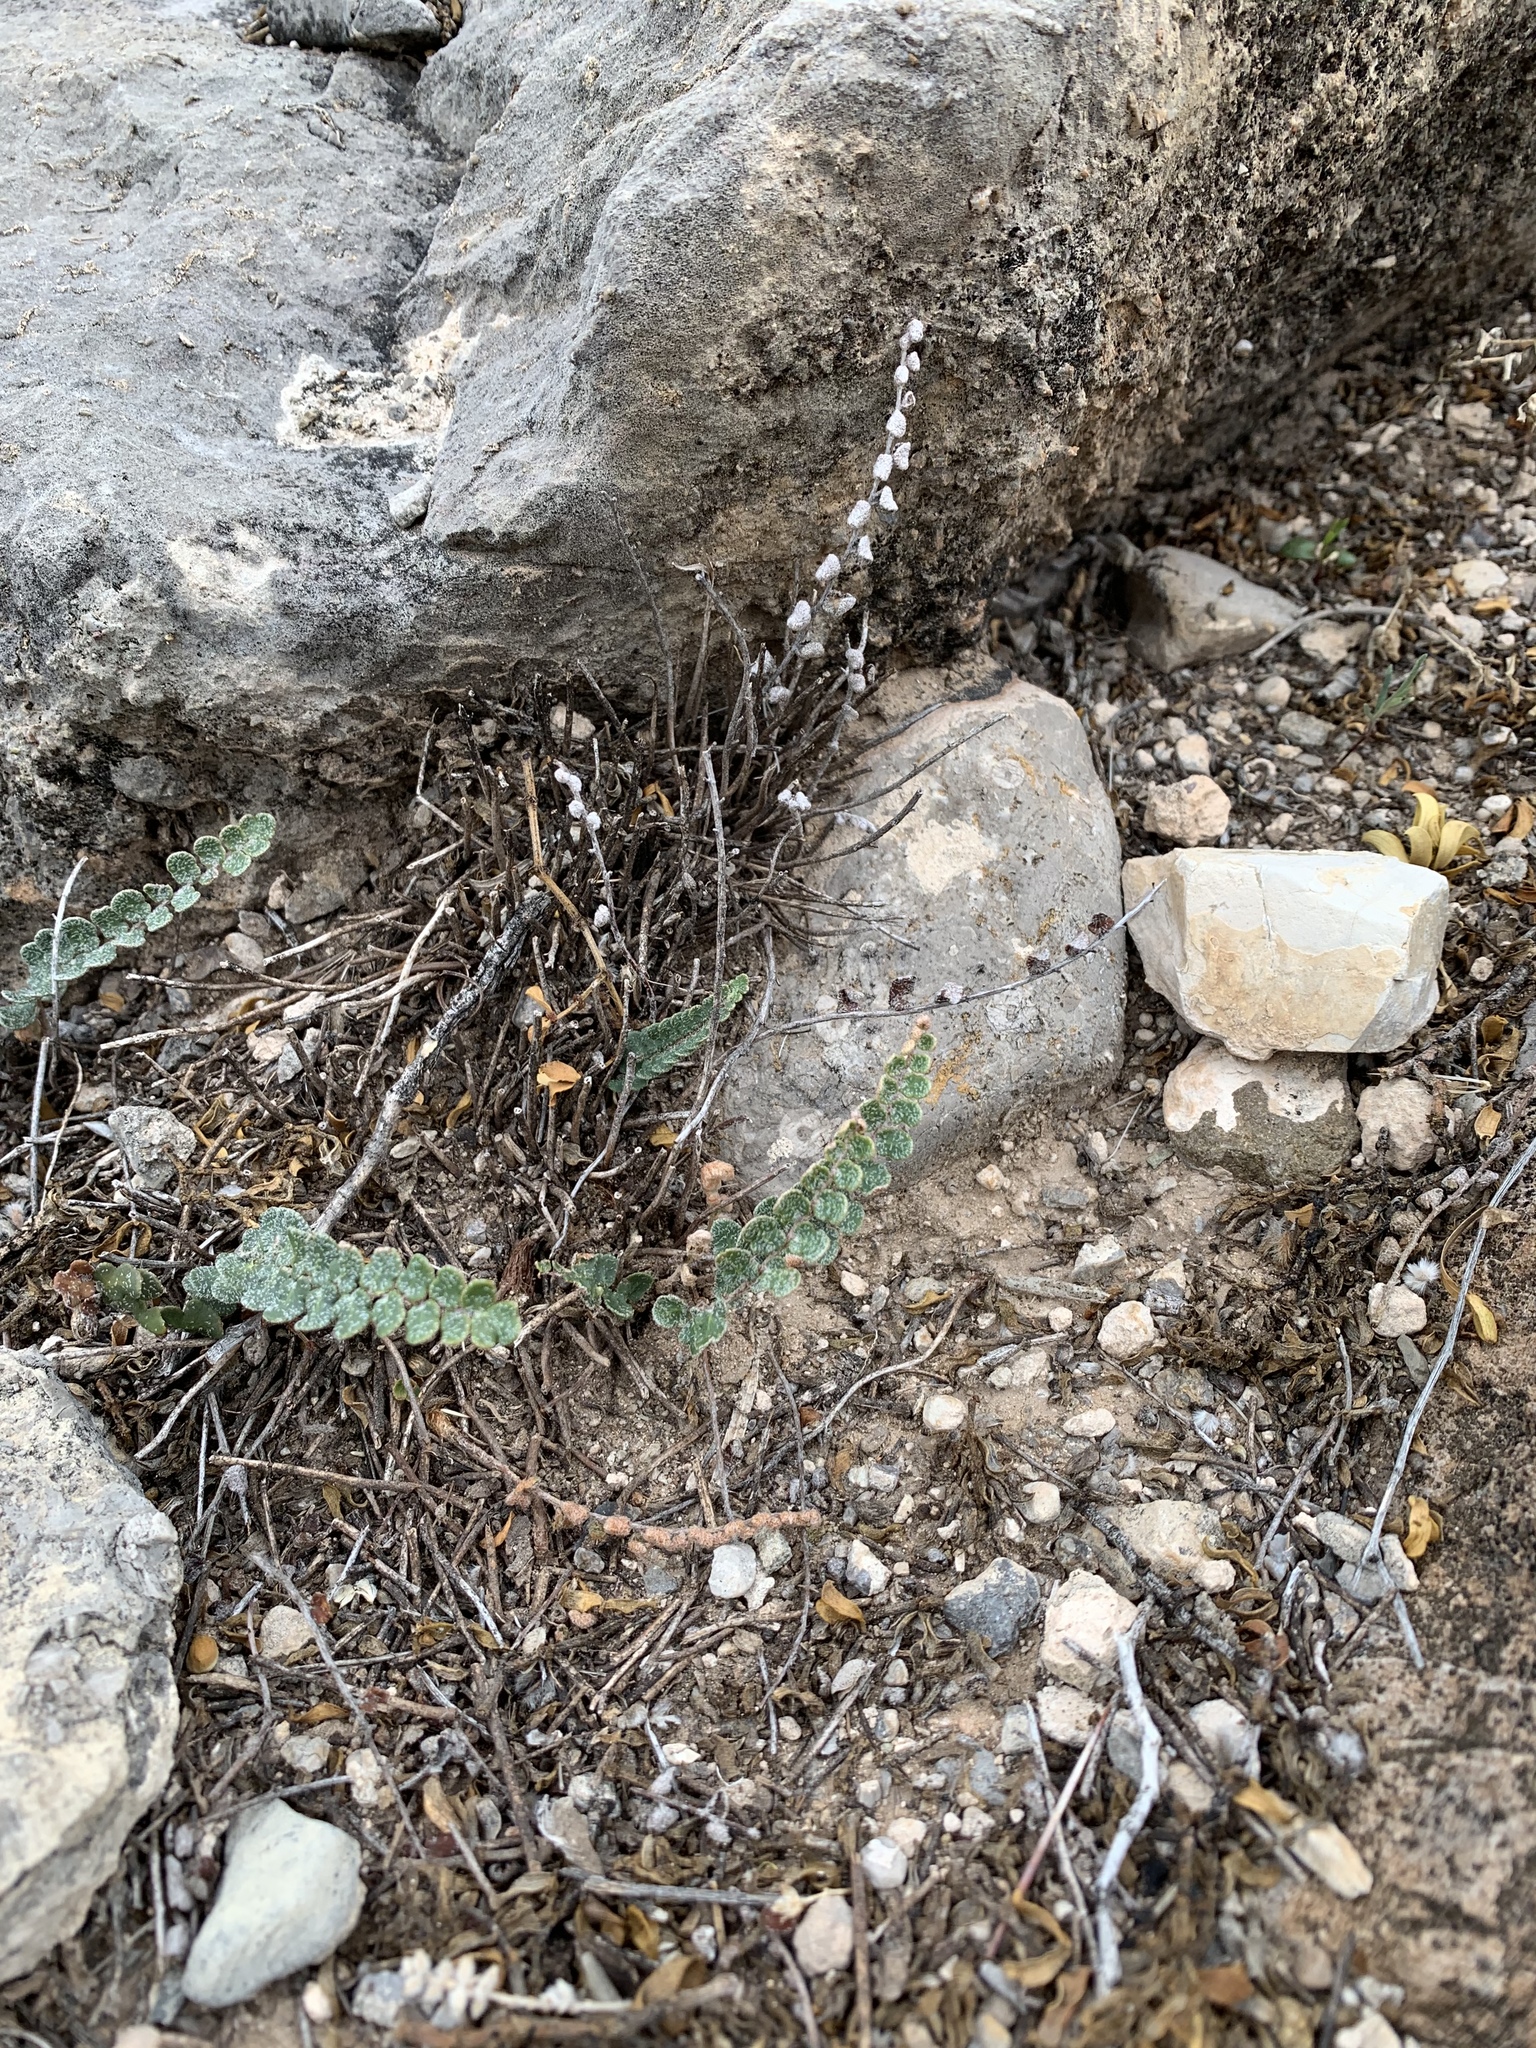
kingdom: Plantae
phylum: Tracheophyta
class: Polypodiopsida
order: Polypodiales
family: Pteridaceae
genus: Astrolepis
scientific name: Astrolepis cochisensis
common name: Scaly cloak fern
